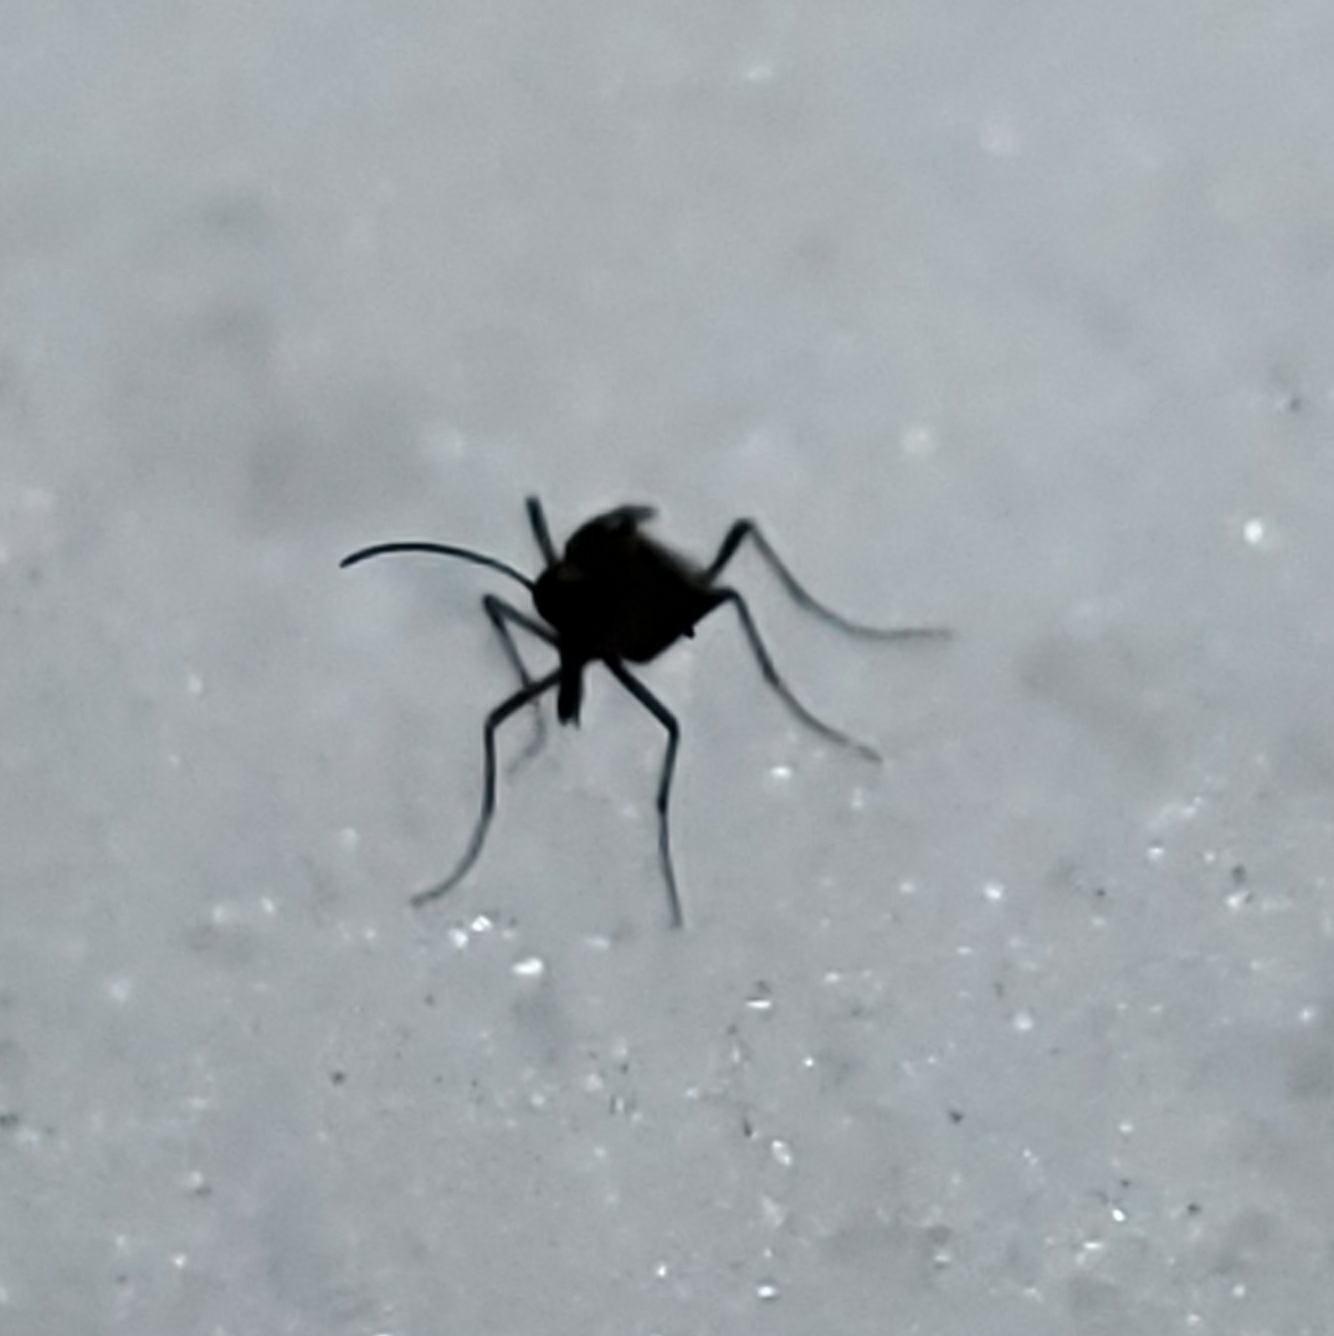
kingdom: Animalia
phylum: Arthropoda
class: Insecta
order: Mecoptera
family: Boreidae
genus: Boreus
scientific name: Boreus brumalis
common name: Mid-winter boreus
